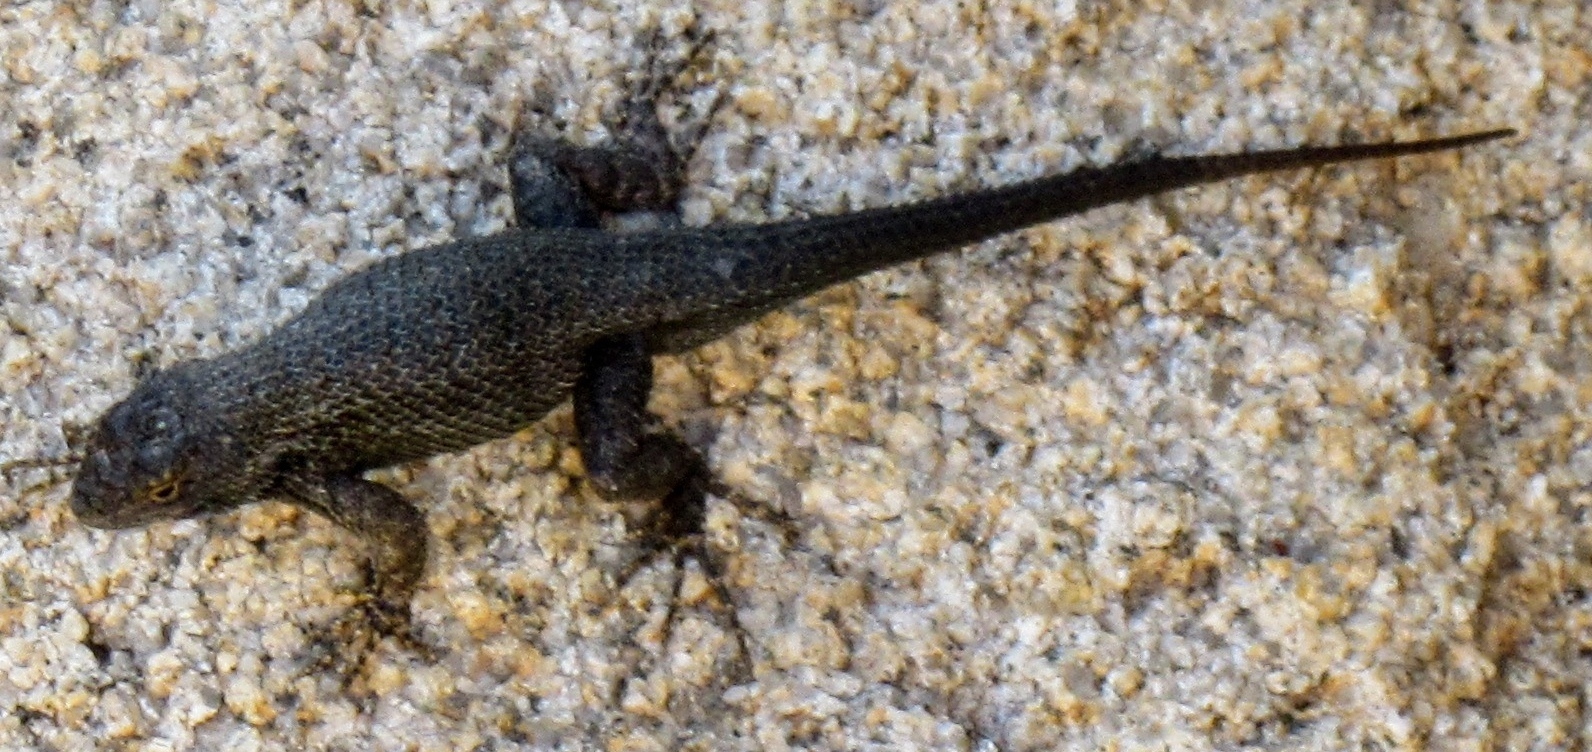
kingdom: Animalia
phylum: Chordata
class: Squamata
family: Phrynosomatidae
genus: Sceloporus
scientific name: Sceloporus occidentalis
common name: Western fence lizard
